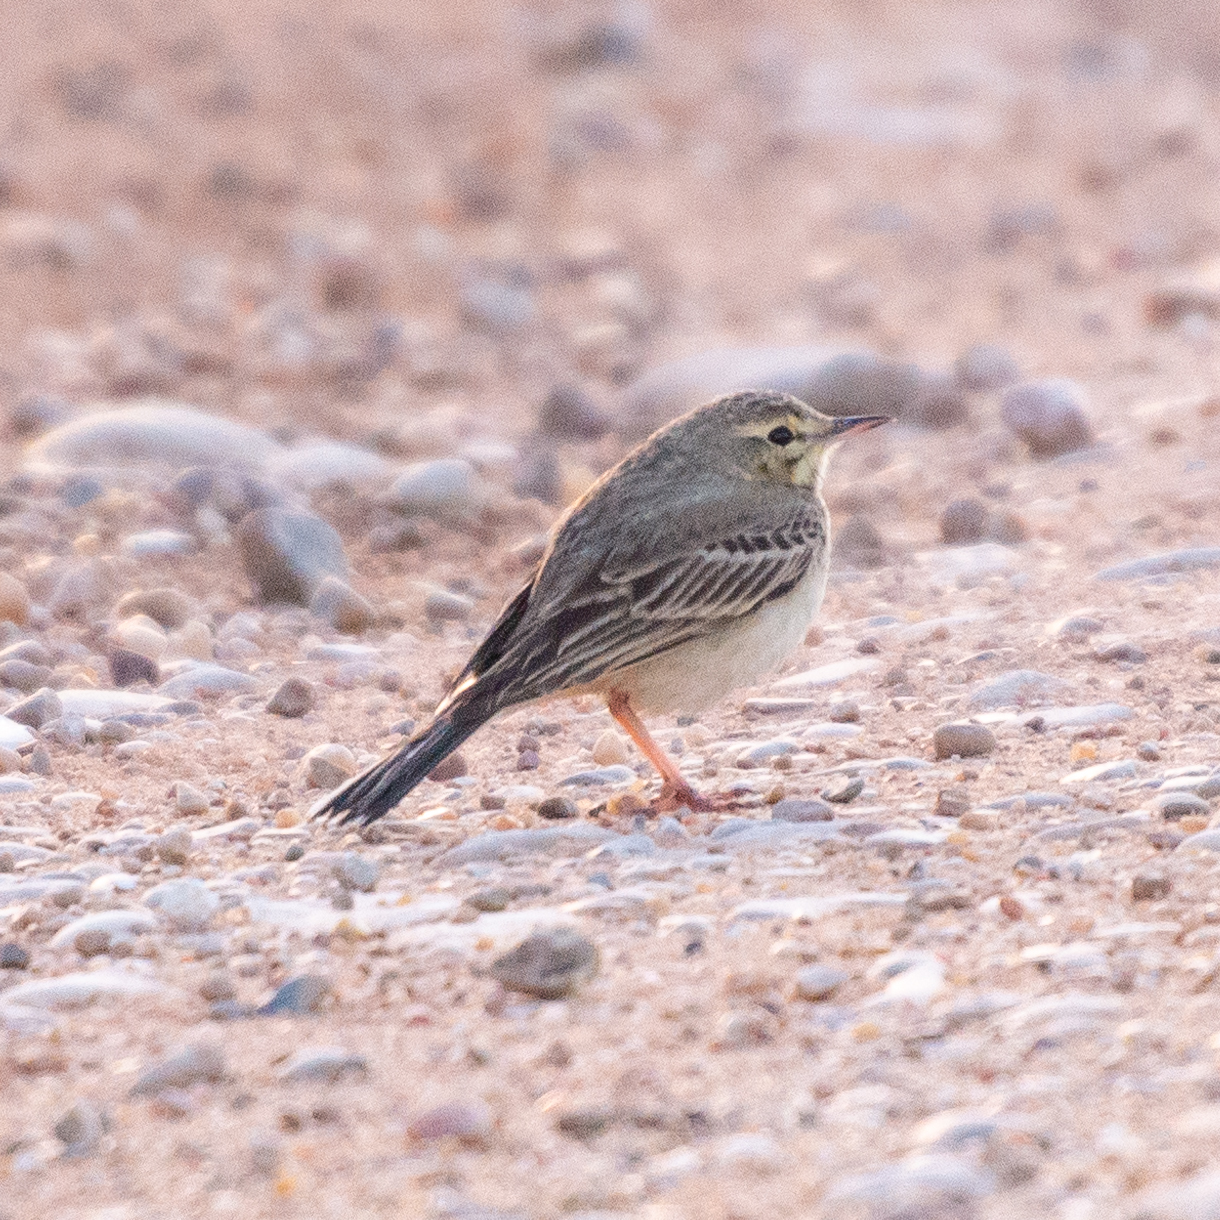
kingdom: Animalia
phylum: Chordata
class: Aves
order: Passeriformes
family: Motacillidae
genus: Anthus
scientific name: Anthus campestris
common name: Tawny pipit
